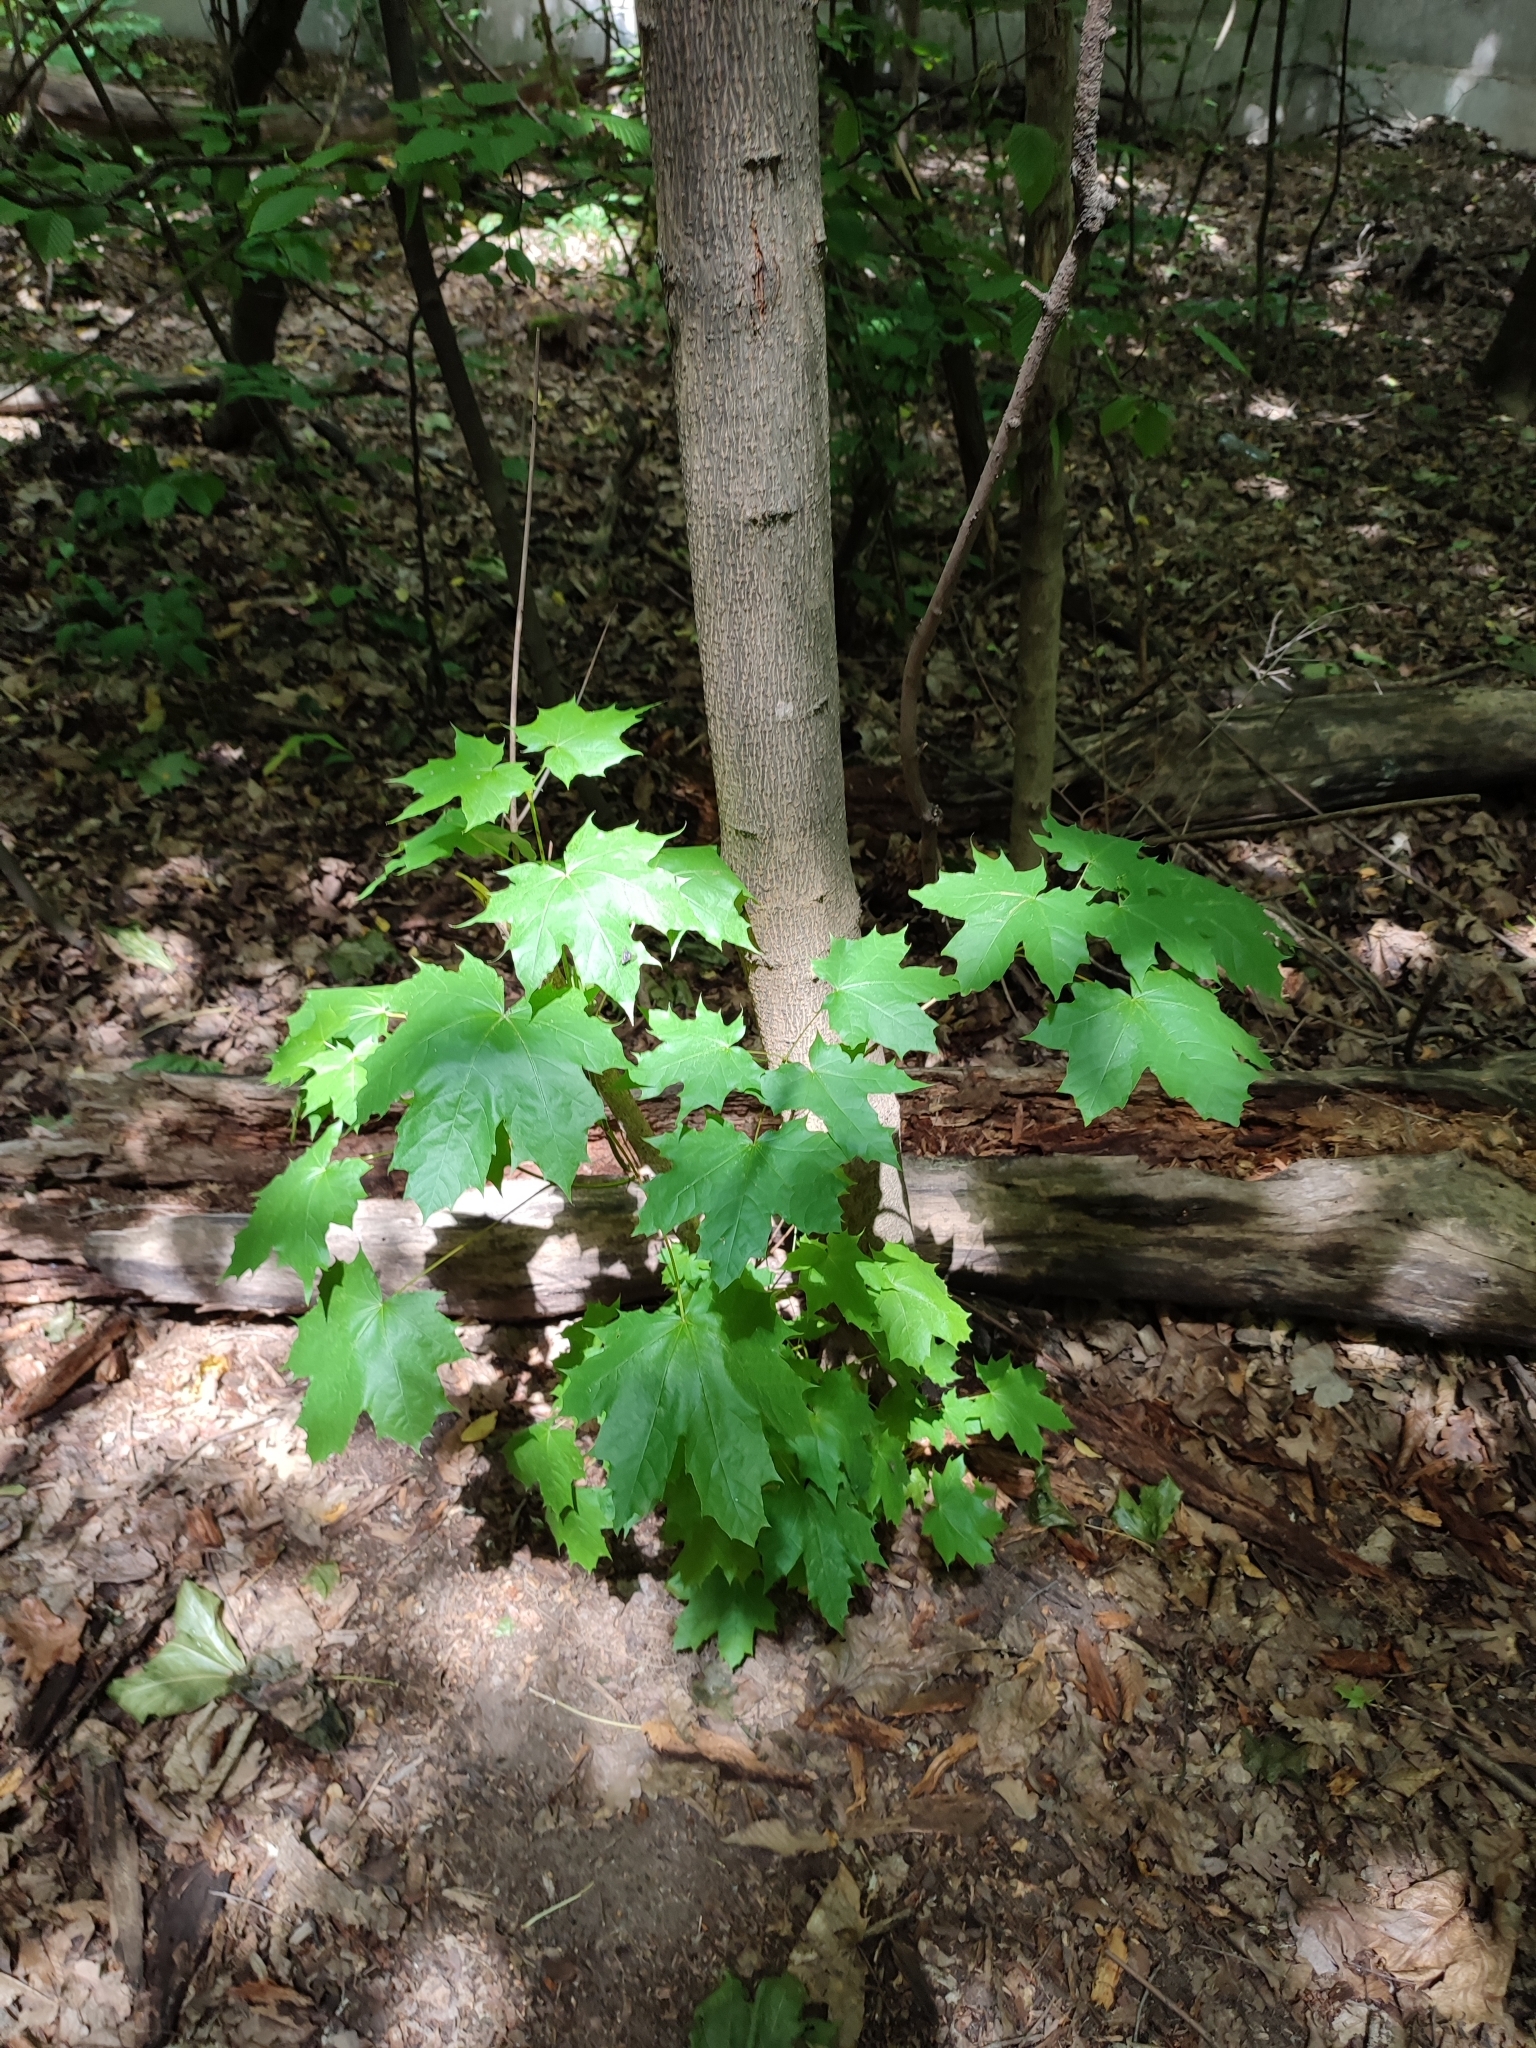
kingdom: Plantae
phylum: Tracheophyta
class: Magnoliopsida
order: Sapindales
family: Sapindaceae
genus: Acer
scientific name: Acer platanoides
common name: Norway maple
